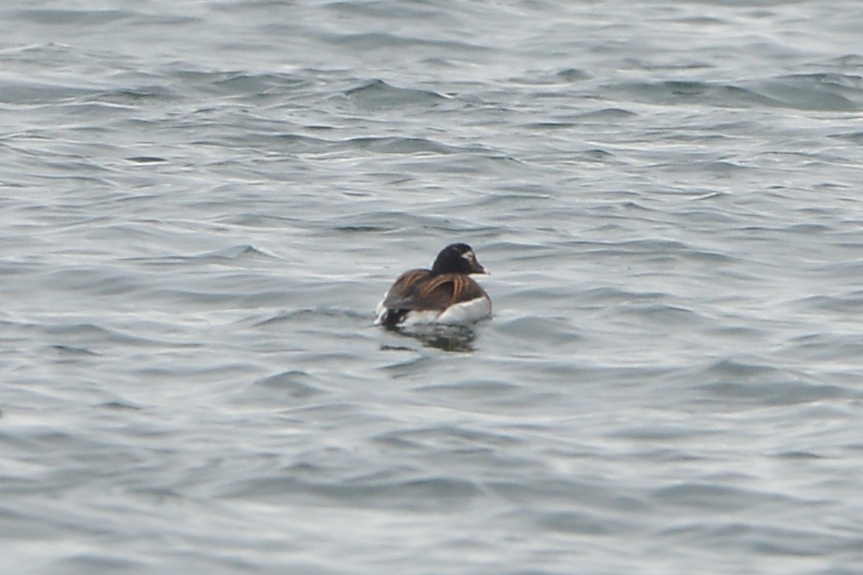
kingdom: Animalia
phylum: Chordata
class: Aves
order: Anseriformes
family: Anatidae
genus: Clangula
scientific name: Clangula hyemalis
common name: Long-tailed duck
